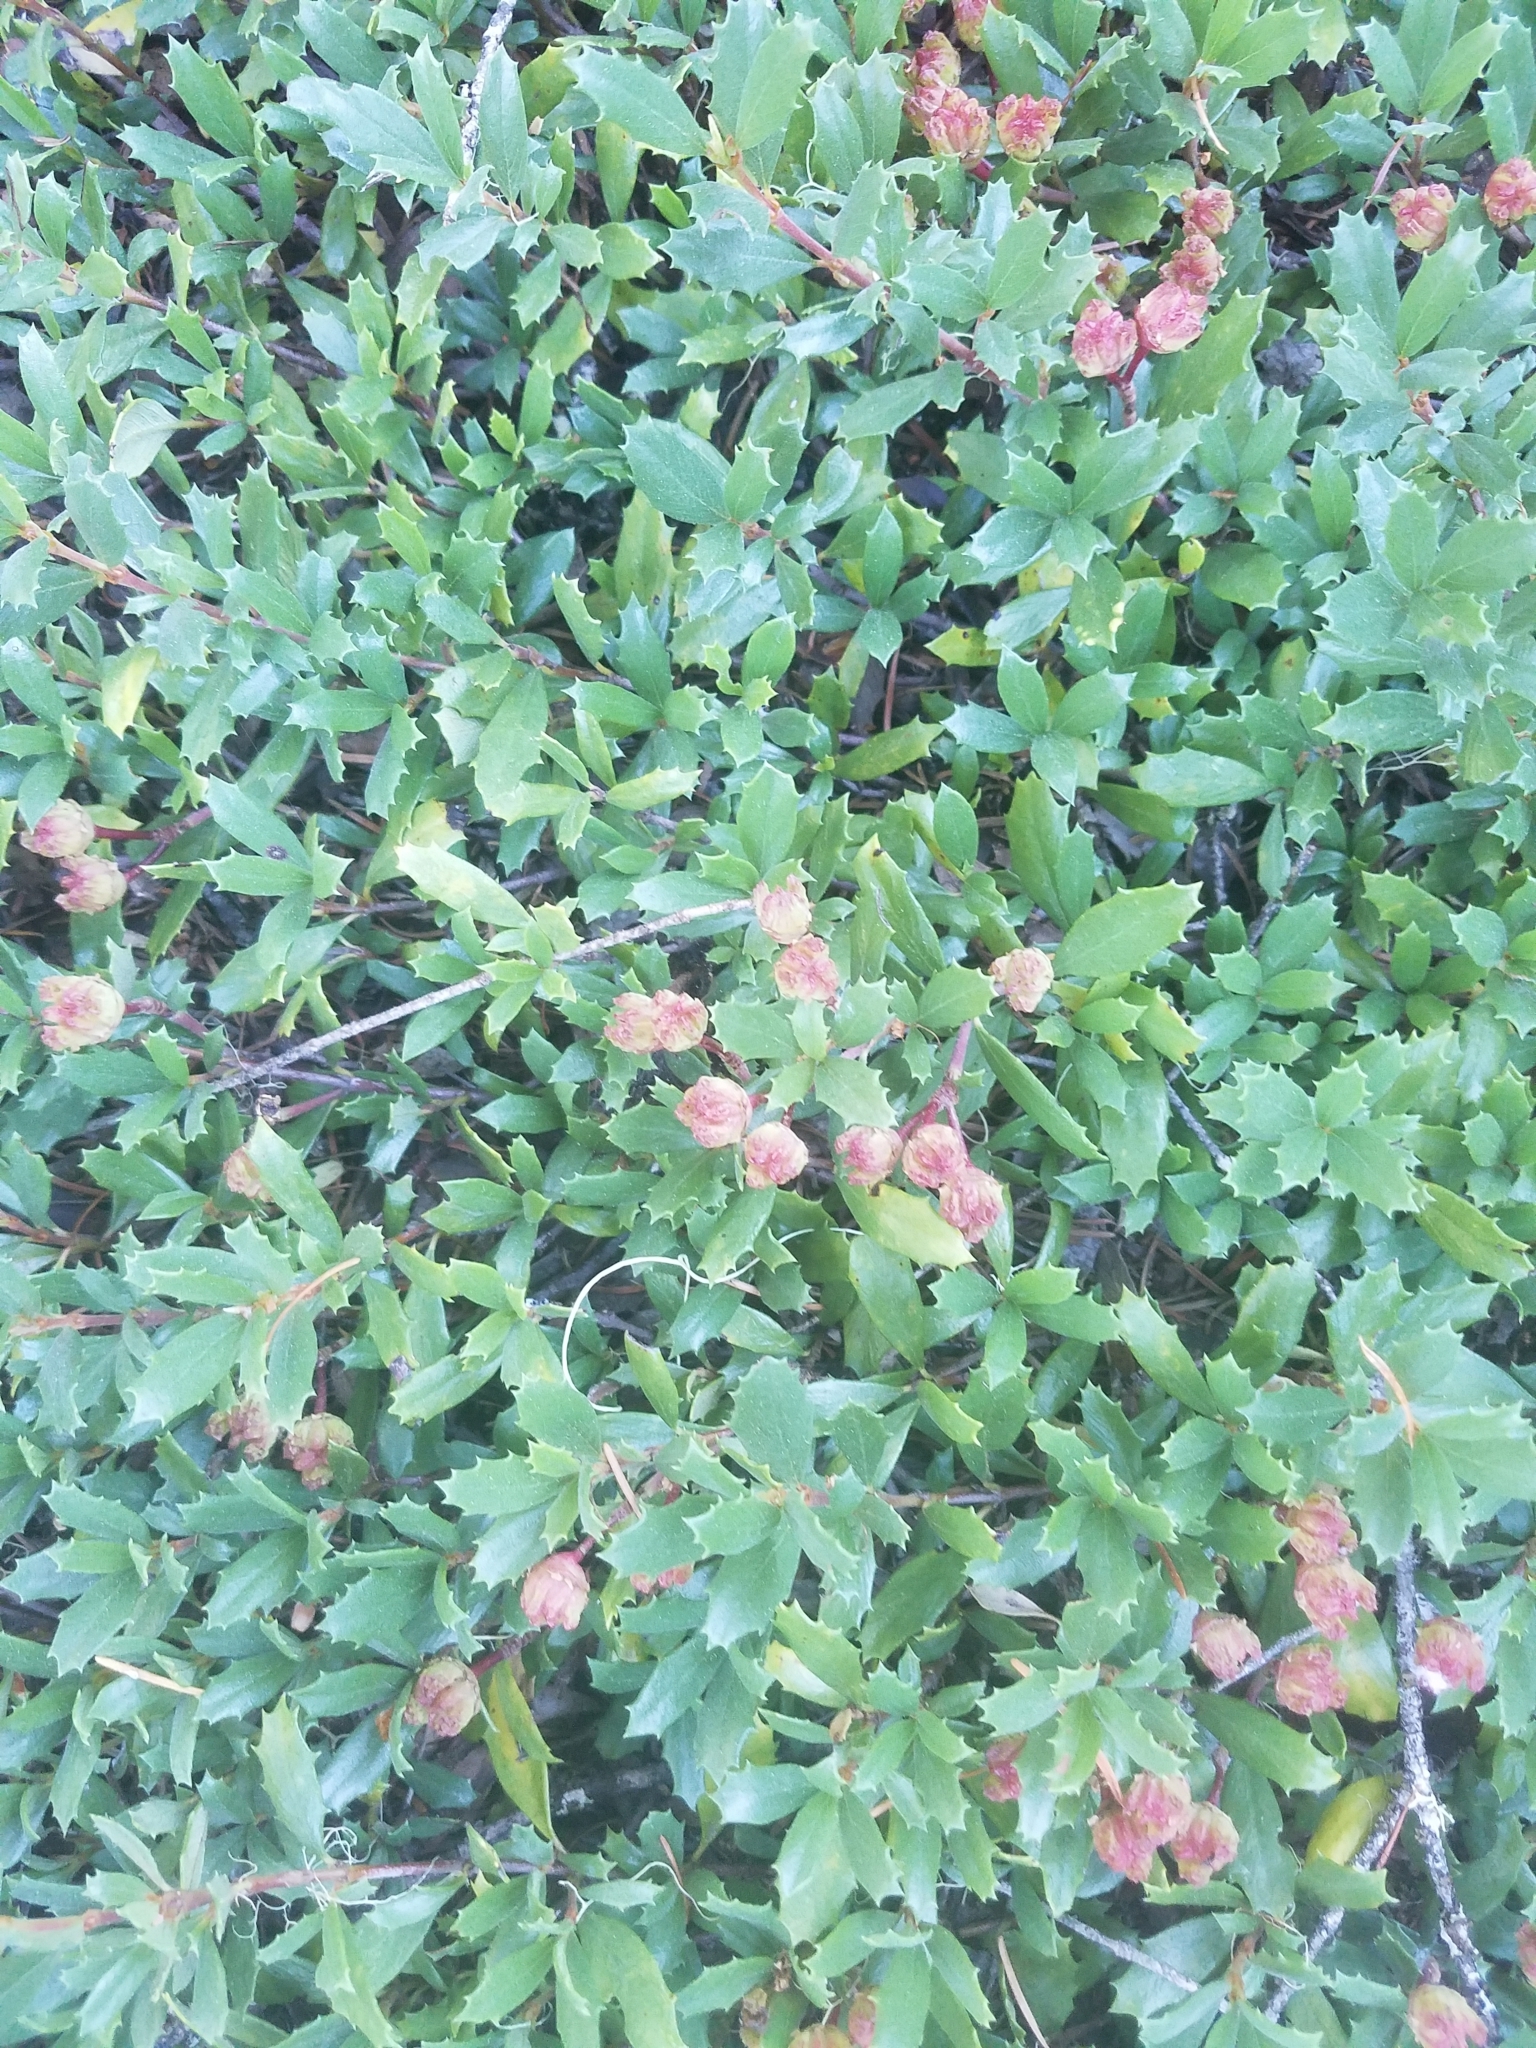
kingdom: Plantae
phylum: Tracheophyta
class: Magnoliopsida
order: Rosales
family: Rhamnaceae
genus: Ceanothus
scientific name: Ceanothus prostratus
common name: Mahala-mat
